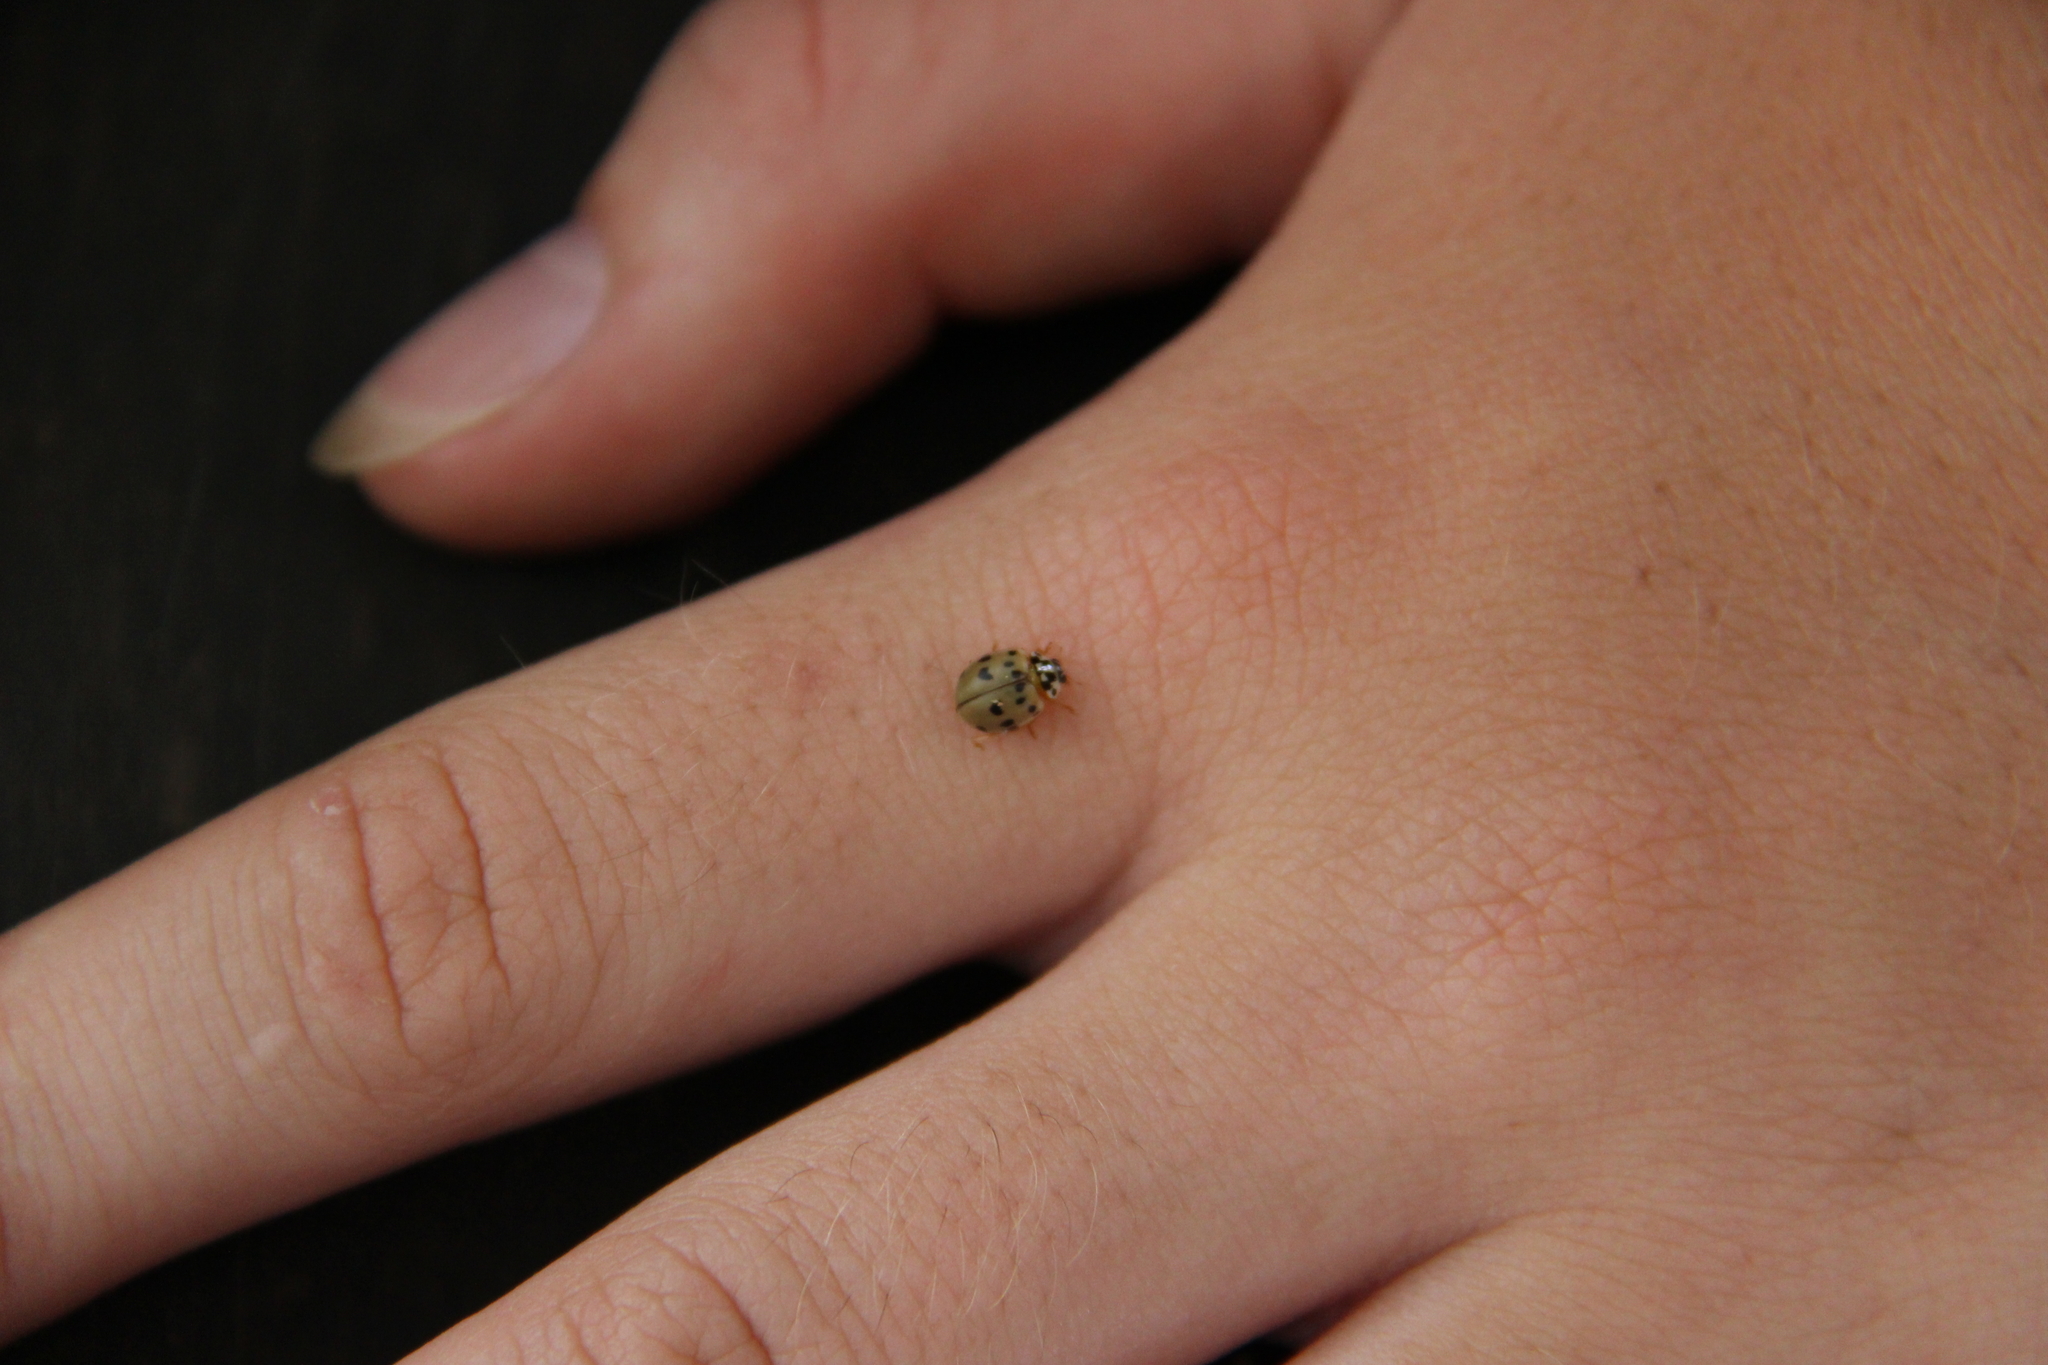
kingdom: Animalia
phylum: Arthropoda
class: Insecta
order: Coleoptera
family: Coccinellidae
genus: Olla
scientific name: Olla v-nigrum
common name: Ashy gray lady beetle
